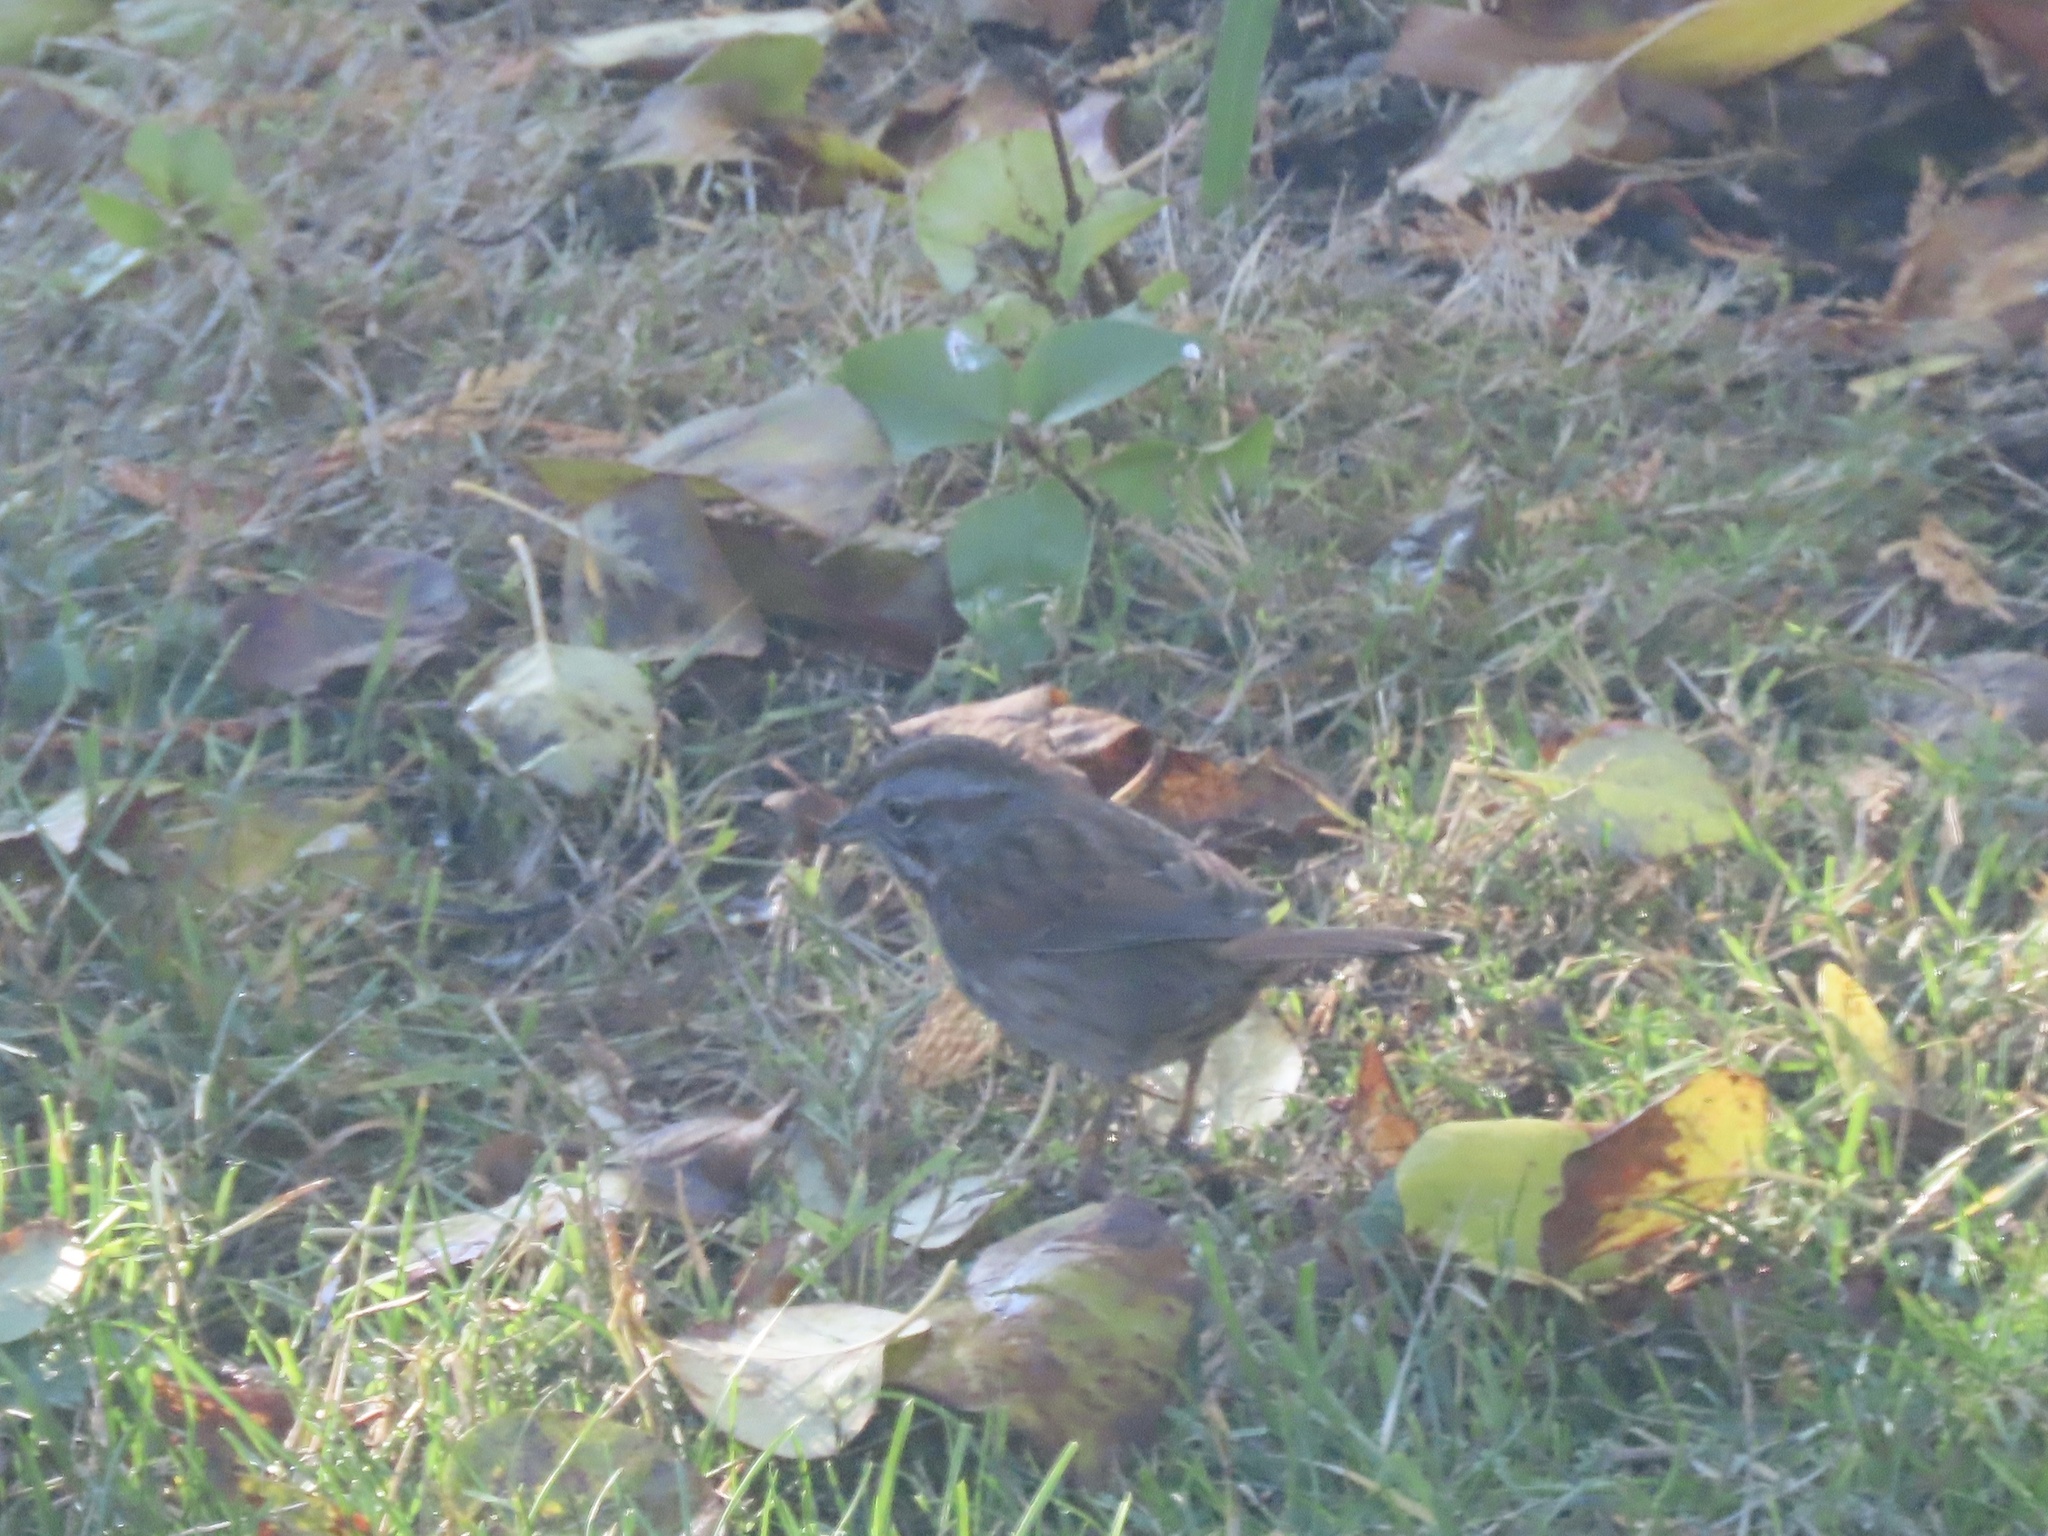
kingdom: Animalia
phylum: Chordata
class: Aves
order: Passeriformes
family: Passerellidae
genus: Melospiza
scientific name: Melospiza melodia
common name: Song sparrow
